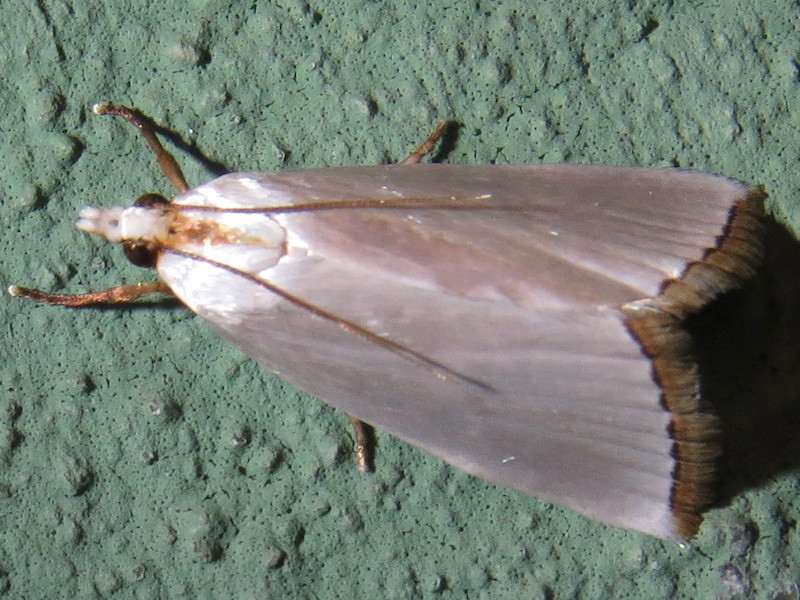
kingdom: Animalia
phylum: Arthropoda
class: Insecta
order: Lepidoptera
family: Crambidae
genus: Argyria
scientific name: Argyria nivalis
